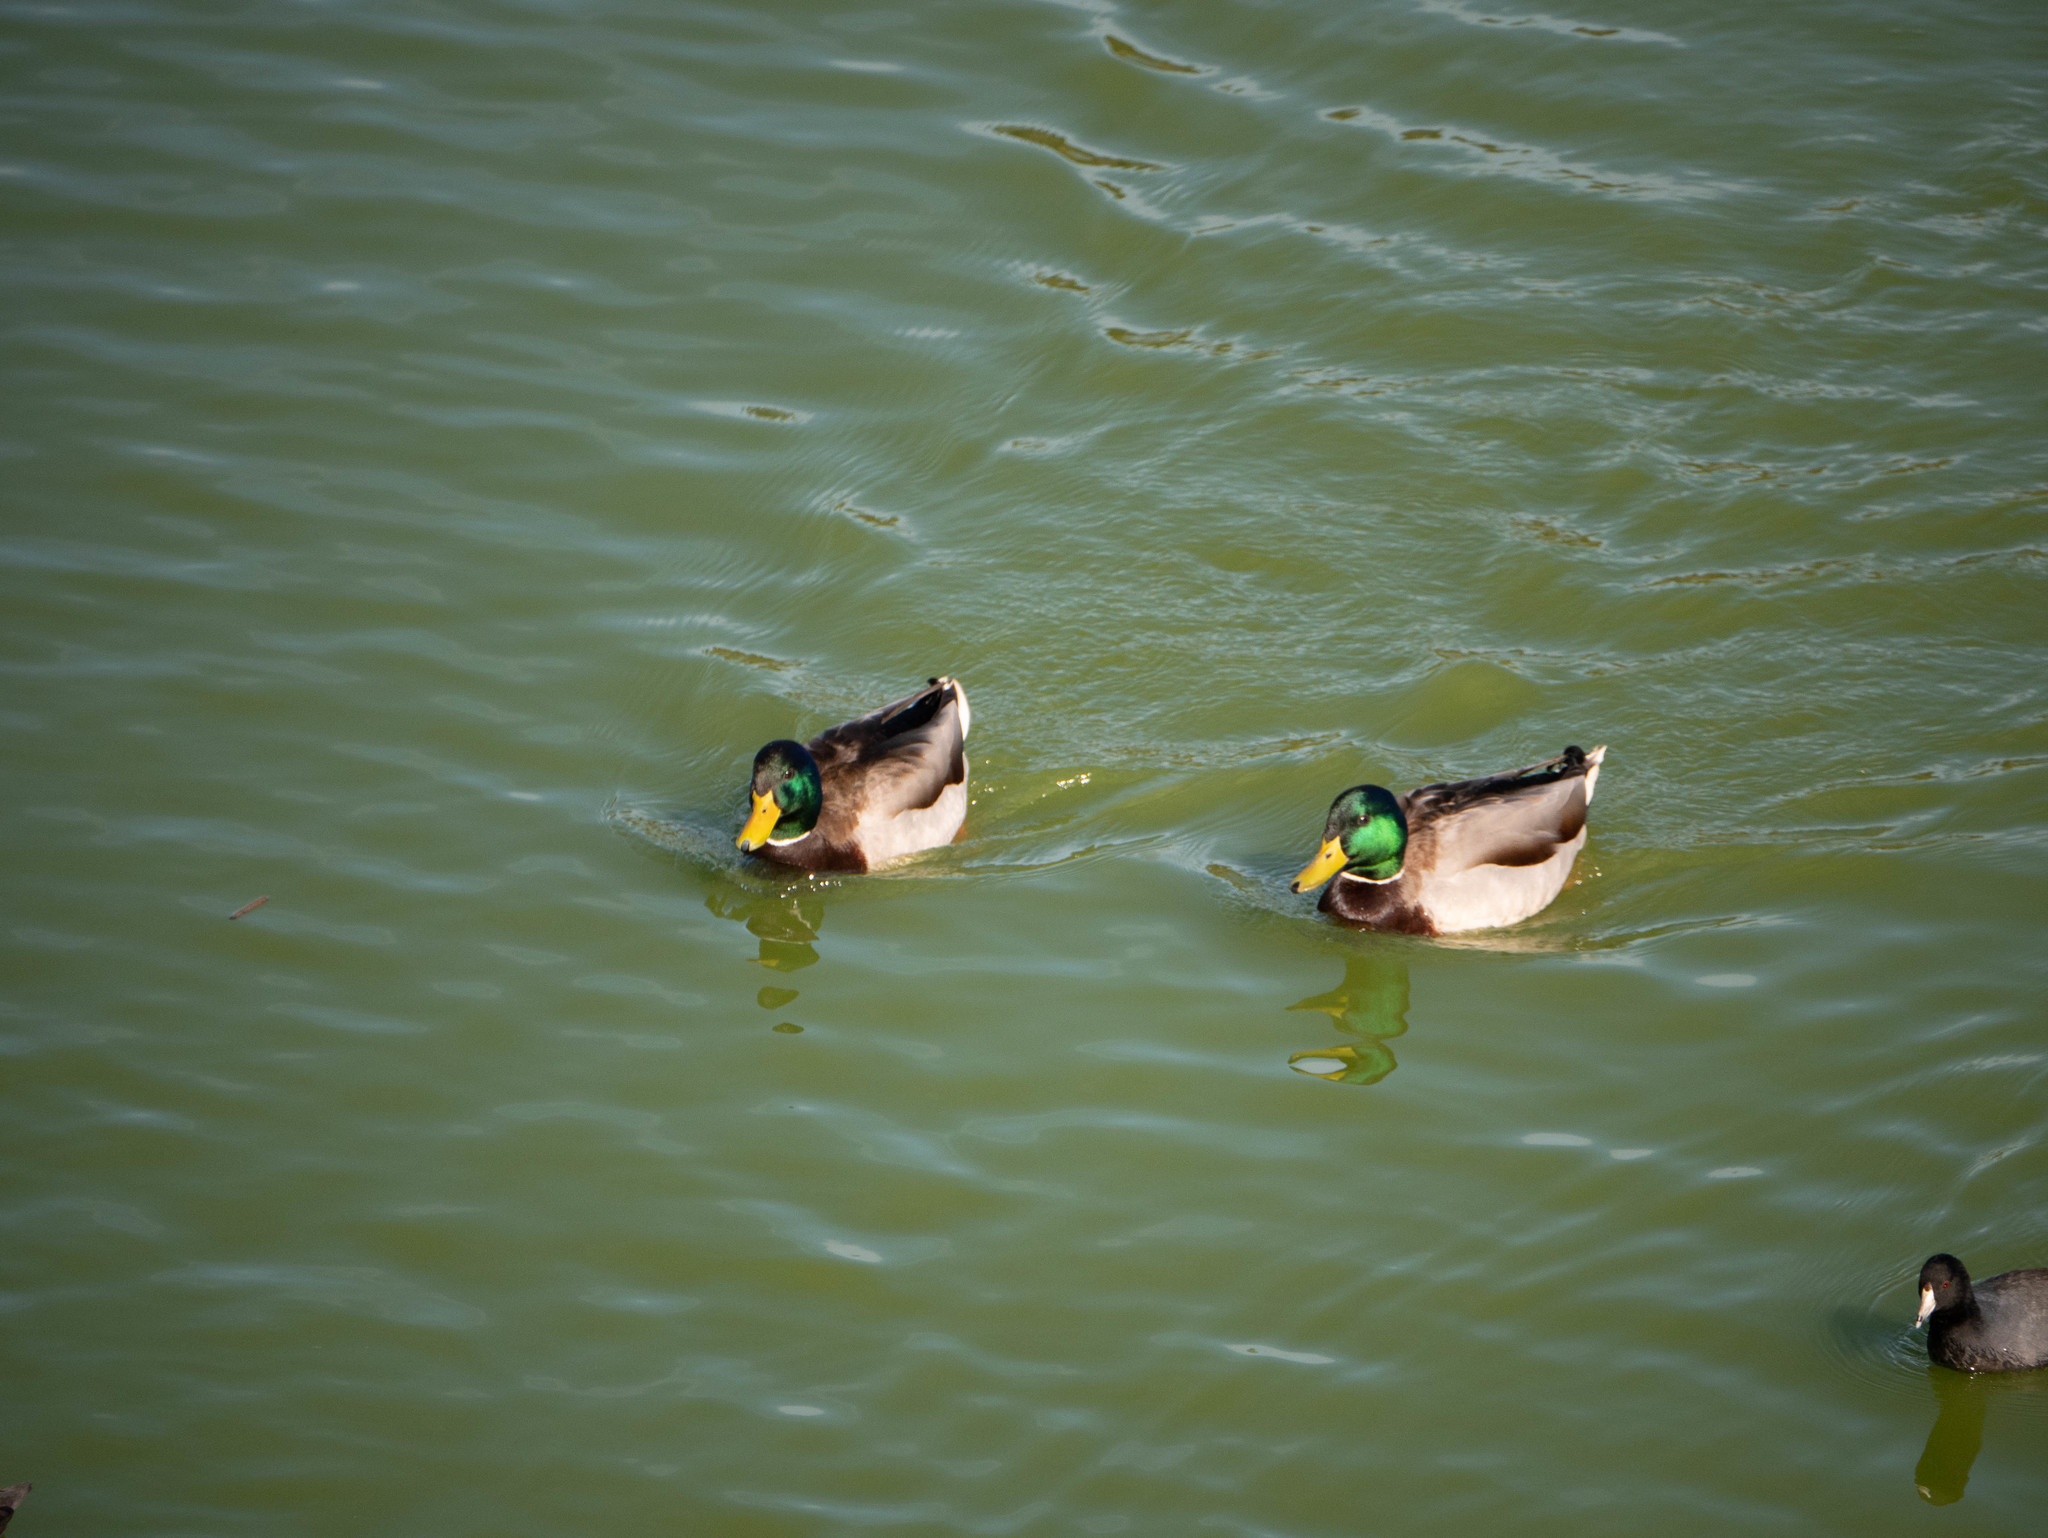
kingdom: Animalia
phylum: Chordata
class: Aves
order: Anseriformes
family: Anatidae
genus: Anas
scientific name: Anas platyrhynchos
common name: Mallard
